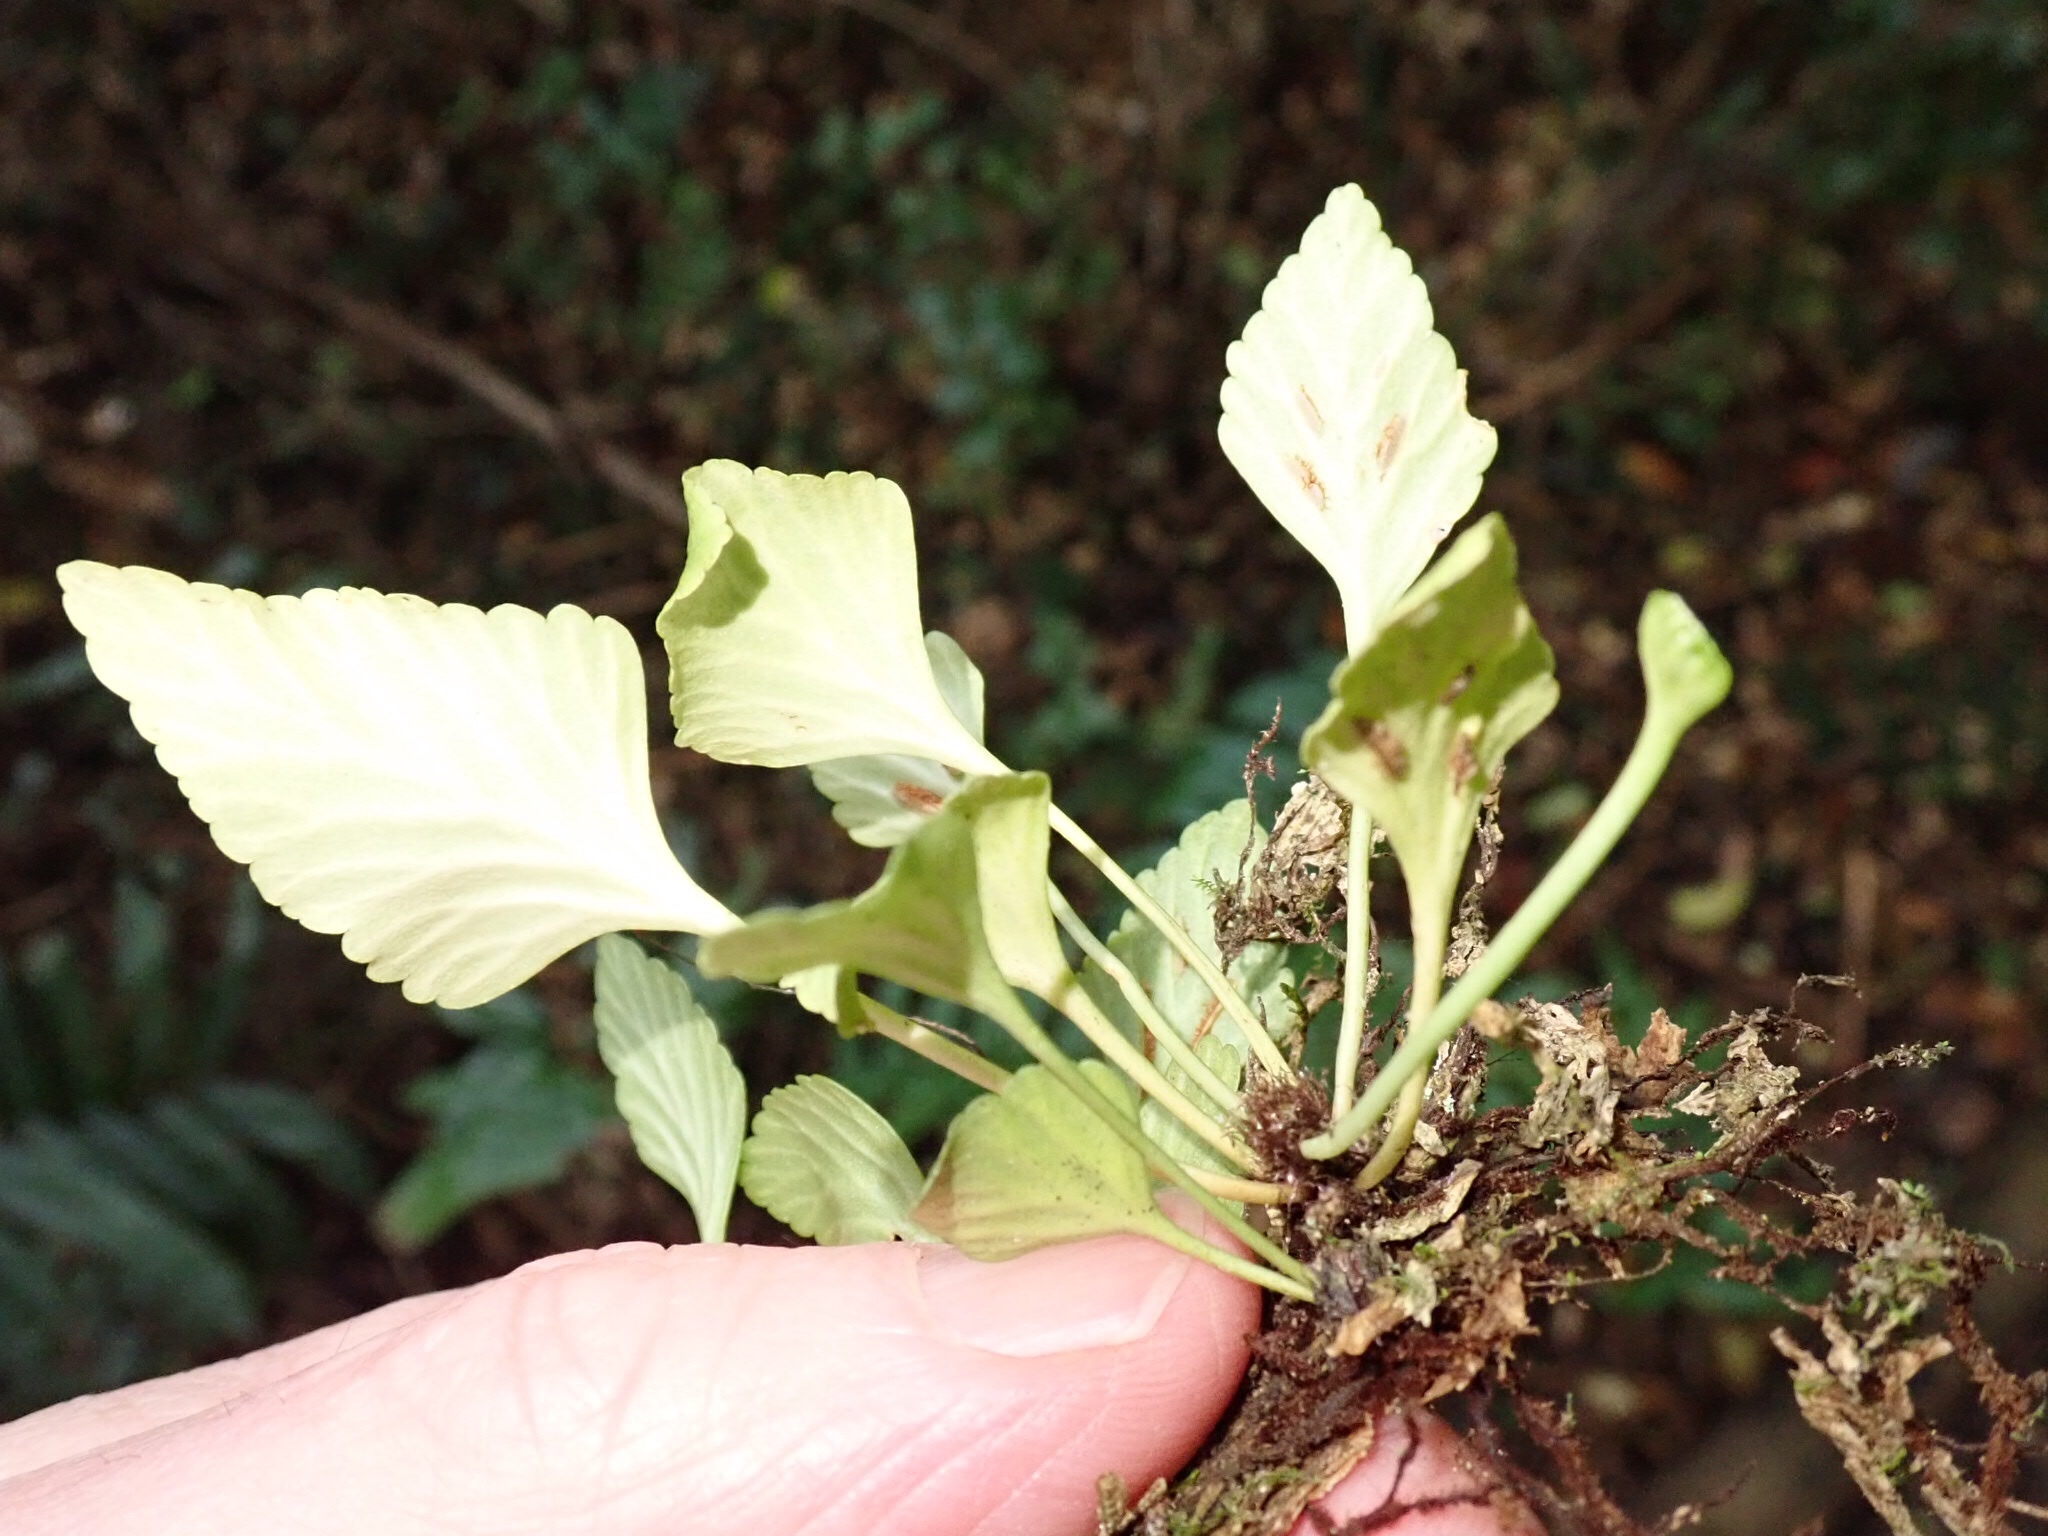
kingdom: Plantae
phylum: Tracheophyta
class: Polypodiopsida
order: Polypodiales
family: Aspleniaceae
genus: Asplenium
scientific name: Asplenium trilobum
